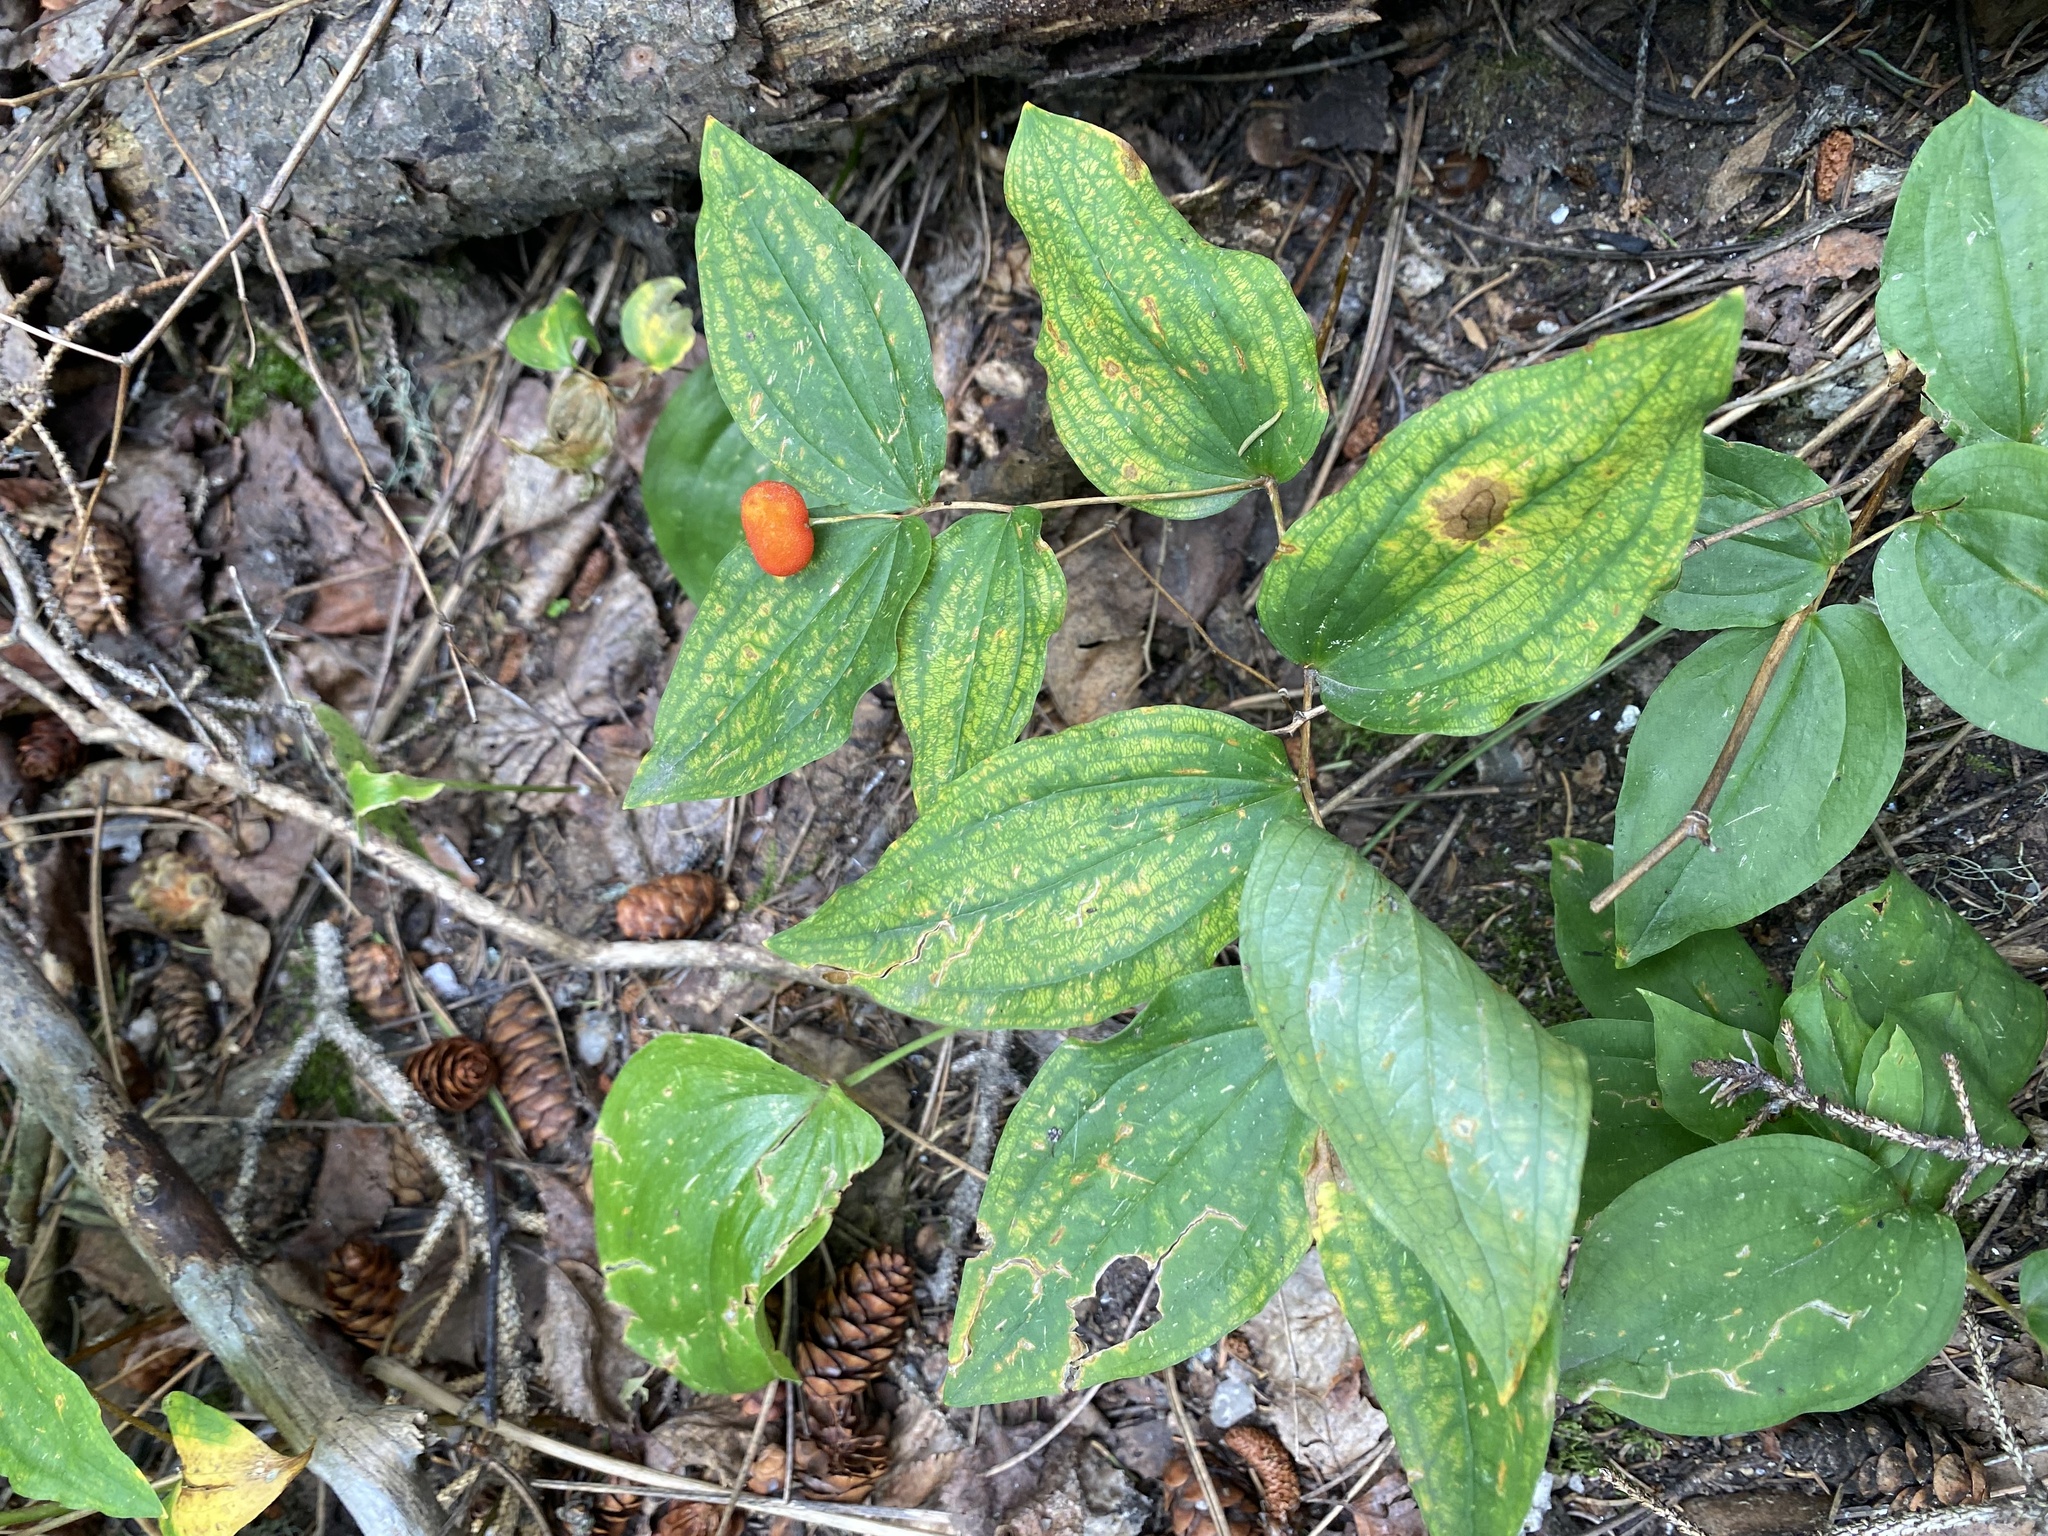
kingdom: Plantae
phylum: Tracheophyta
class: Liliopsida
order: Liliales
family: Liliaceae
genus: Prosartes
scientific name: Prosartes trachycarpa
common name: Rough-fruit fairy-bells
